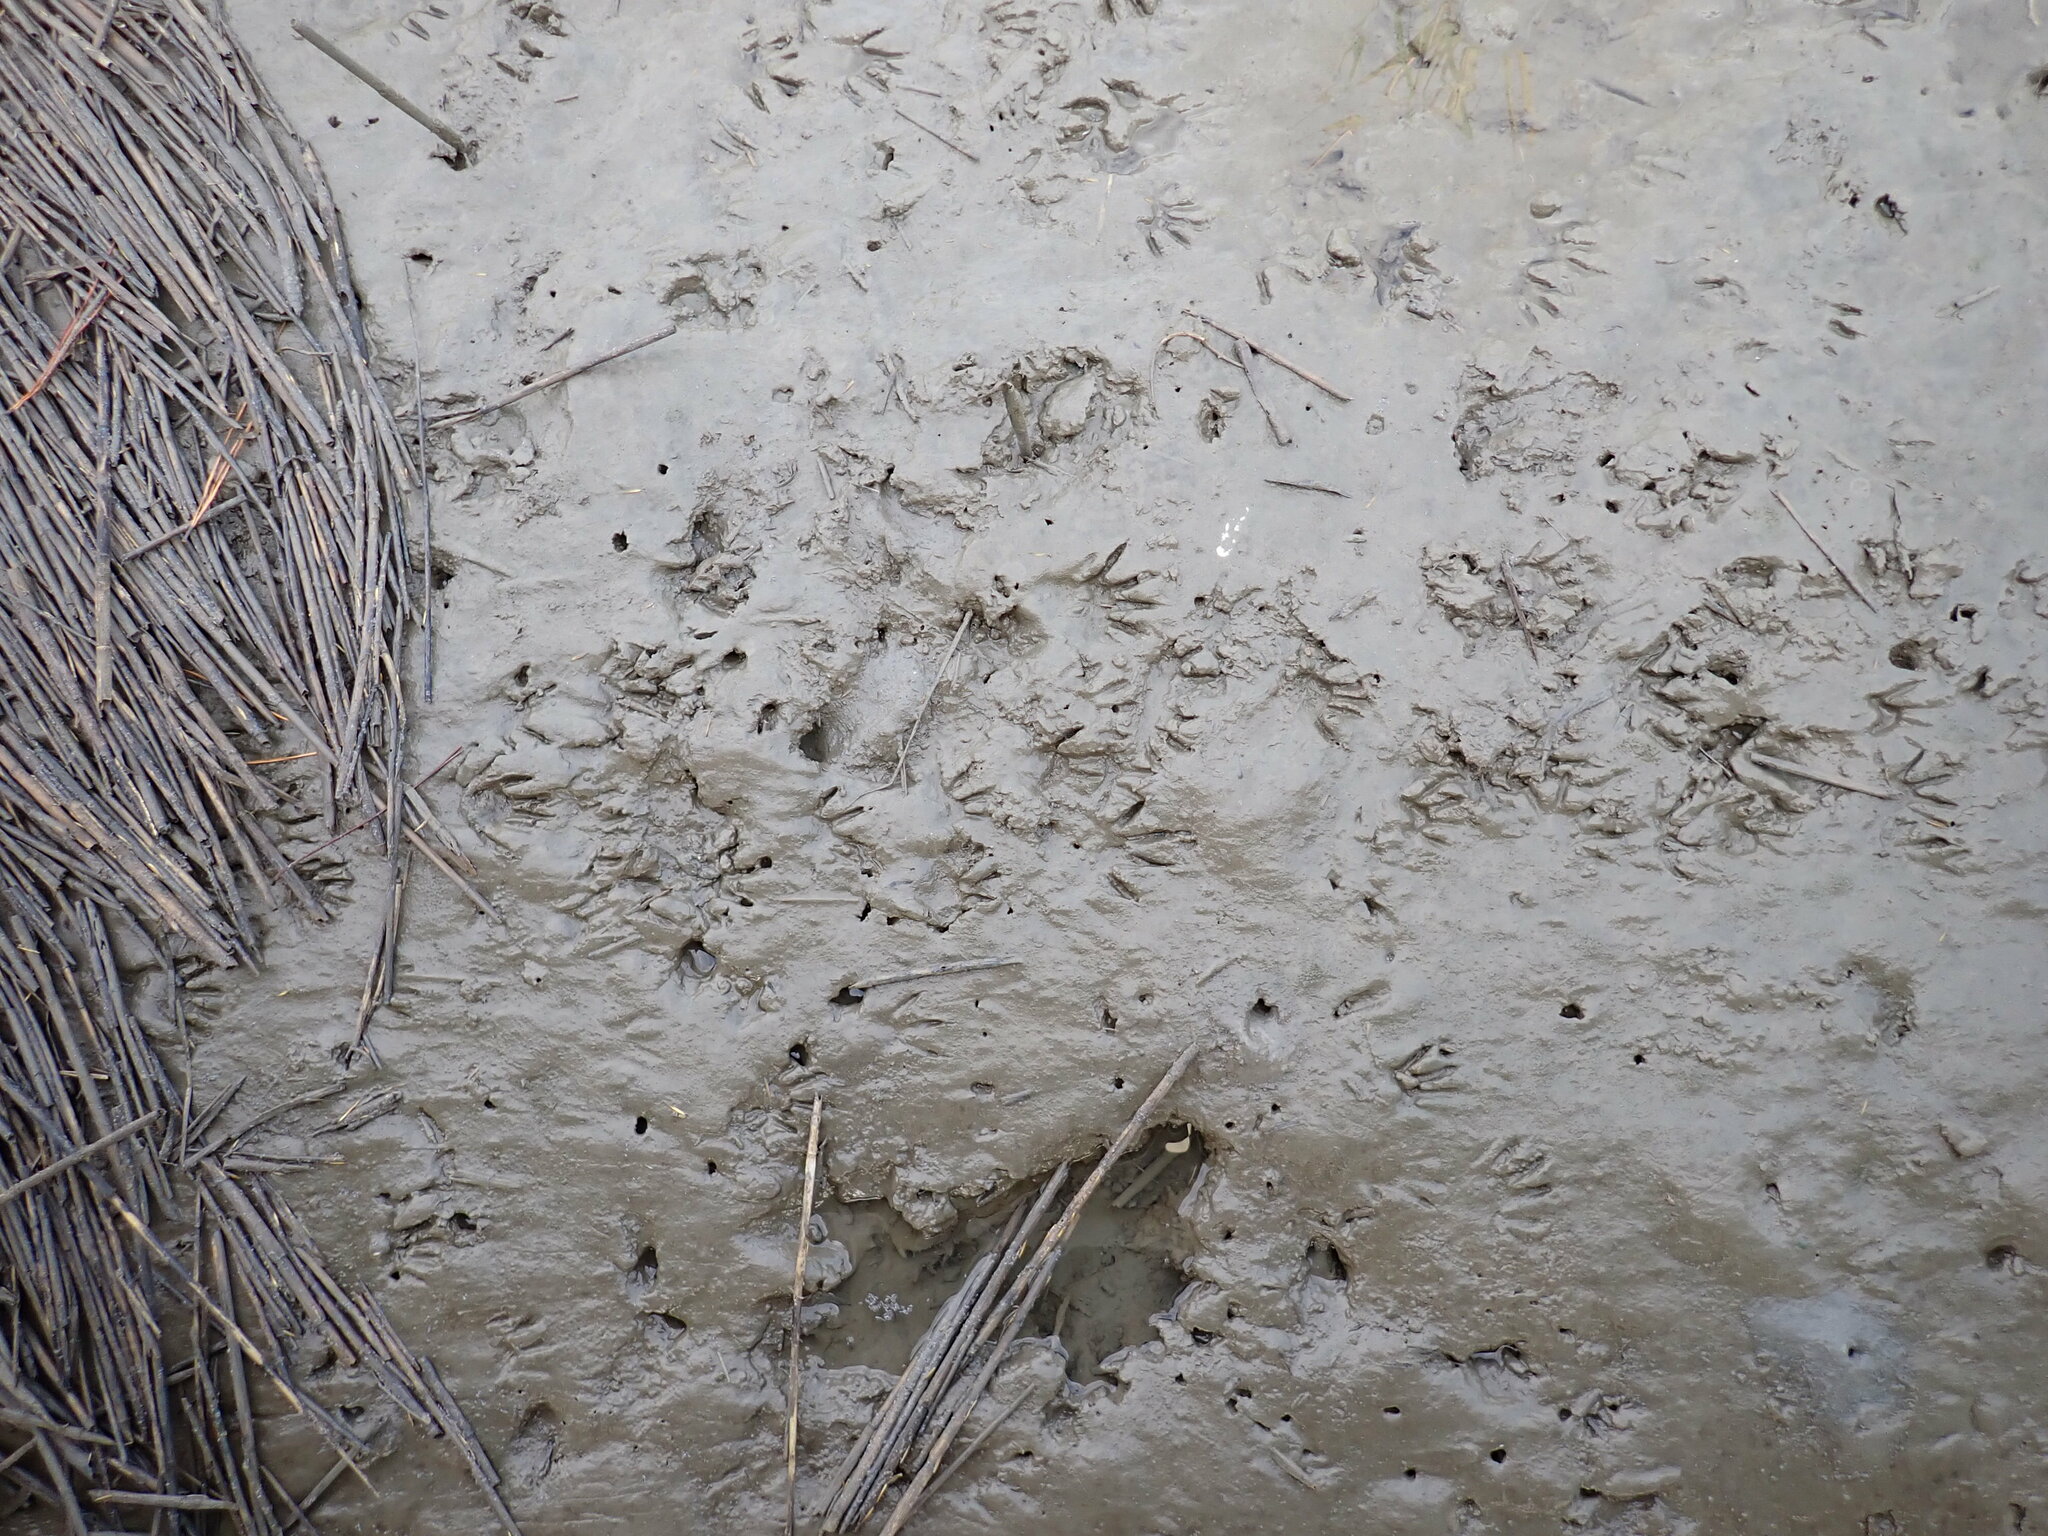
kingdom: Animalia
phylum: Chordata
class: Mammalia
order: Carnivora
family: Procyonidae
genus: Procyon
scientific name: Procyon lotor
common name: Raccoon
